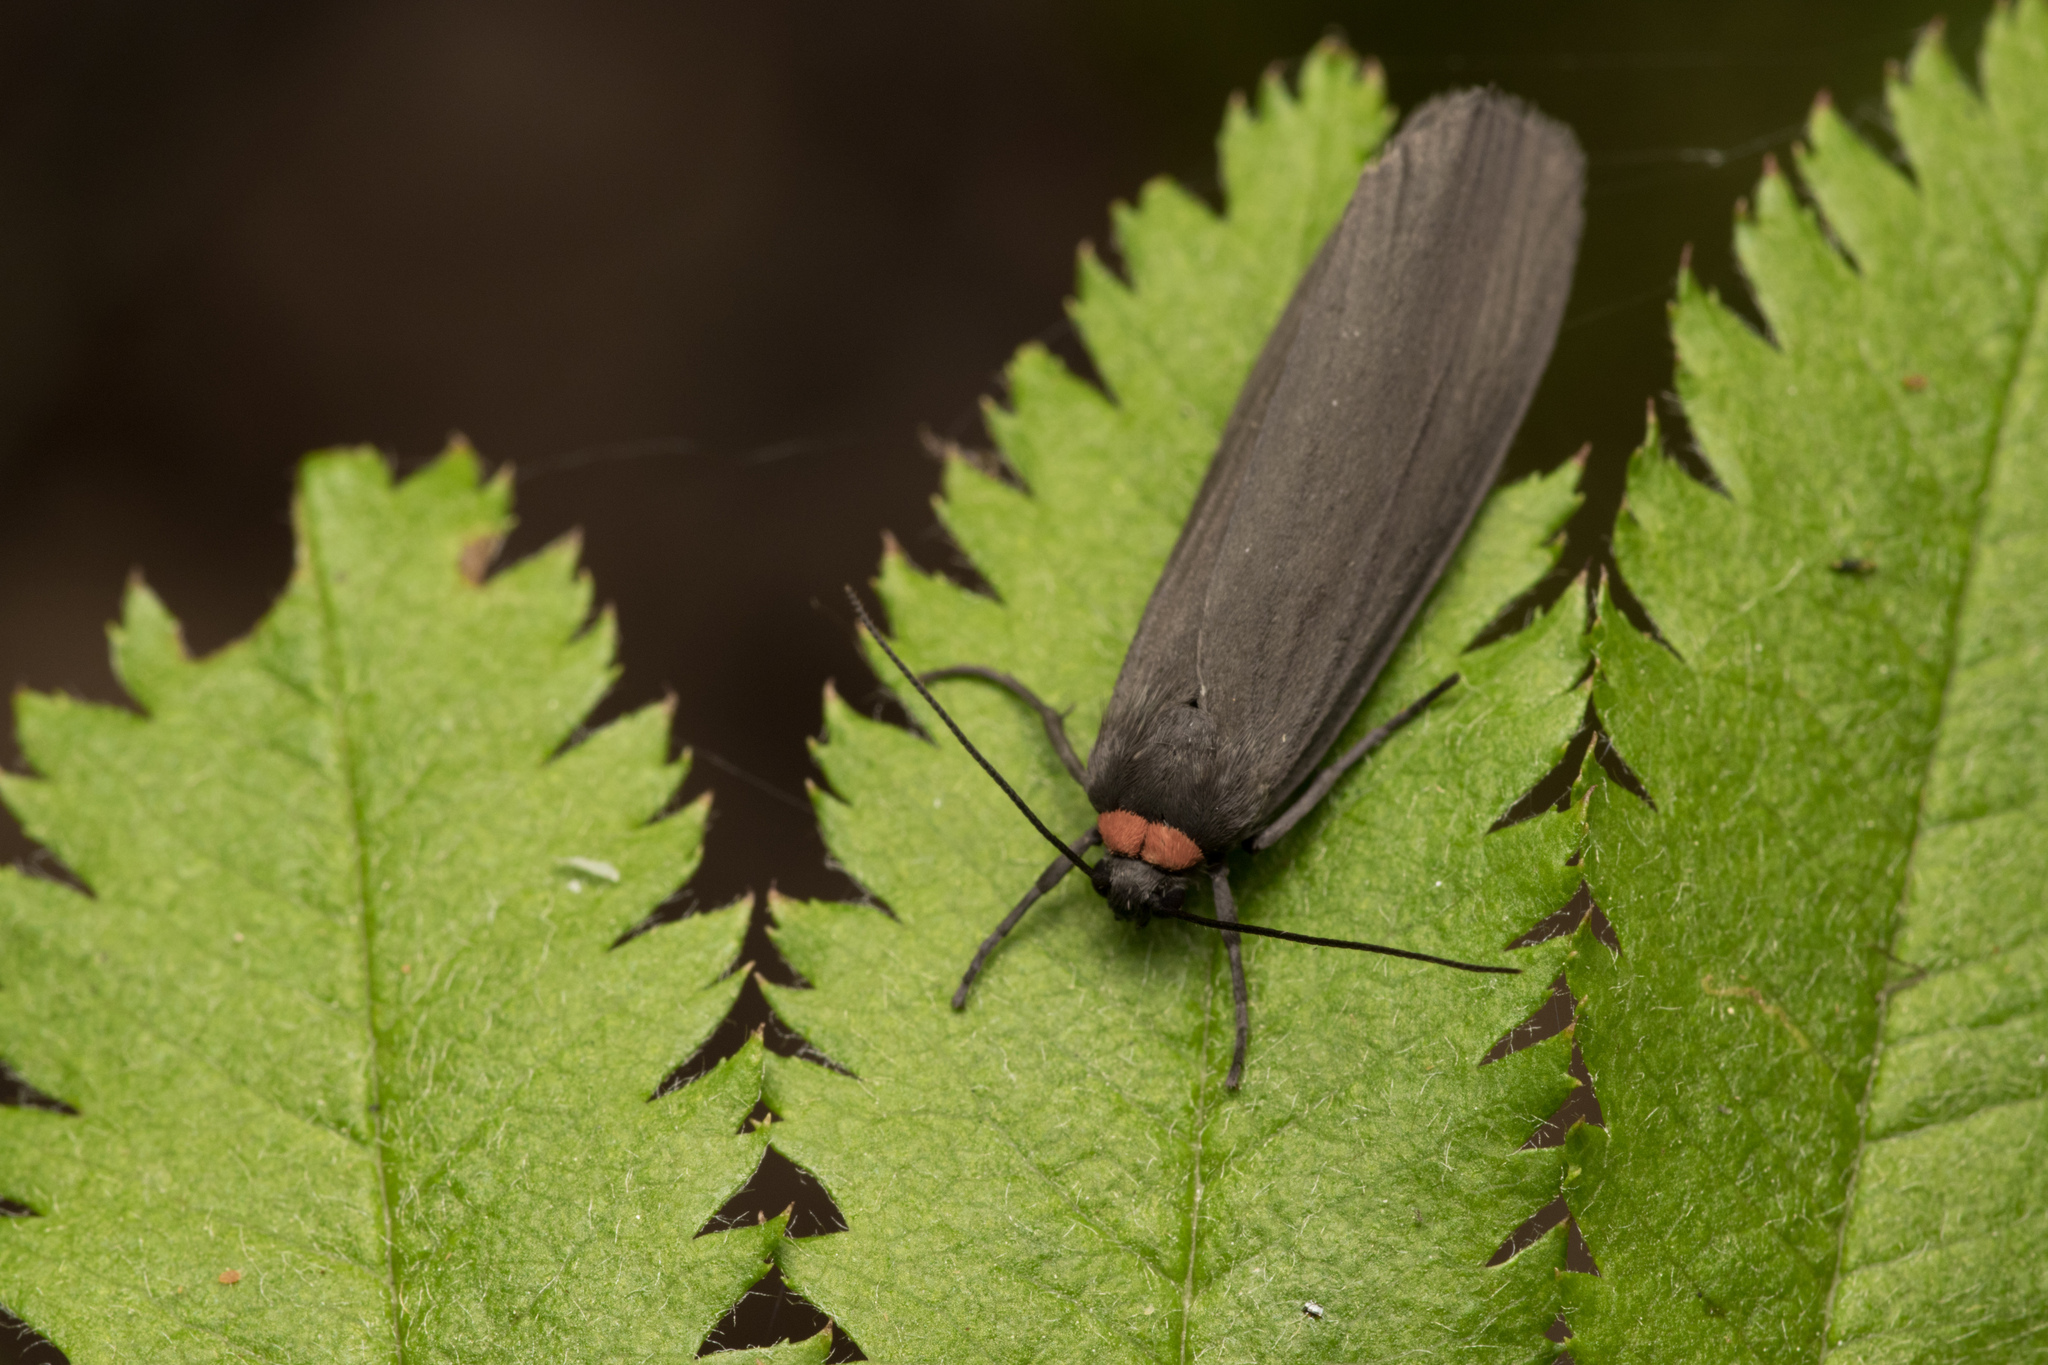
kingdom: Animalia
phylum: Arthropoda
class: Insecta
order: Lepidoptera
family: Erebidae
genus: Atolmis
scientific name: Atolmis rubricollis
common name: Red-necked footman
